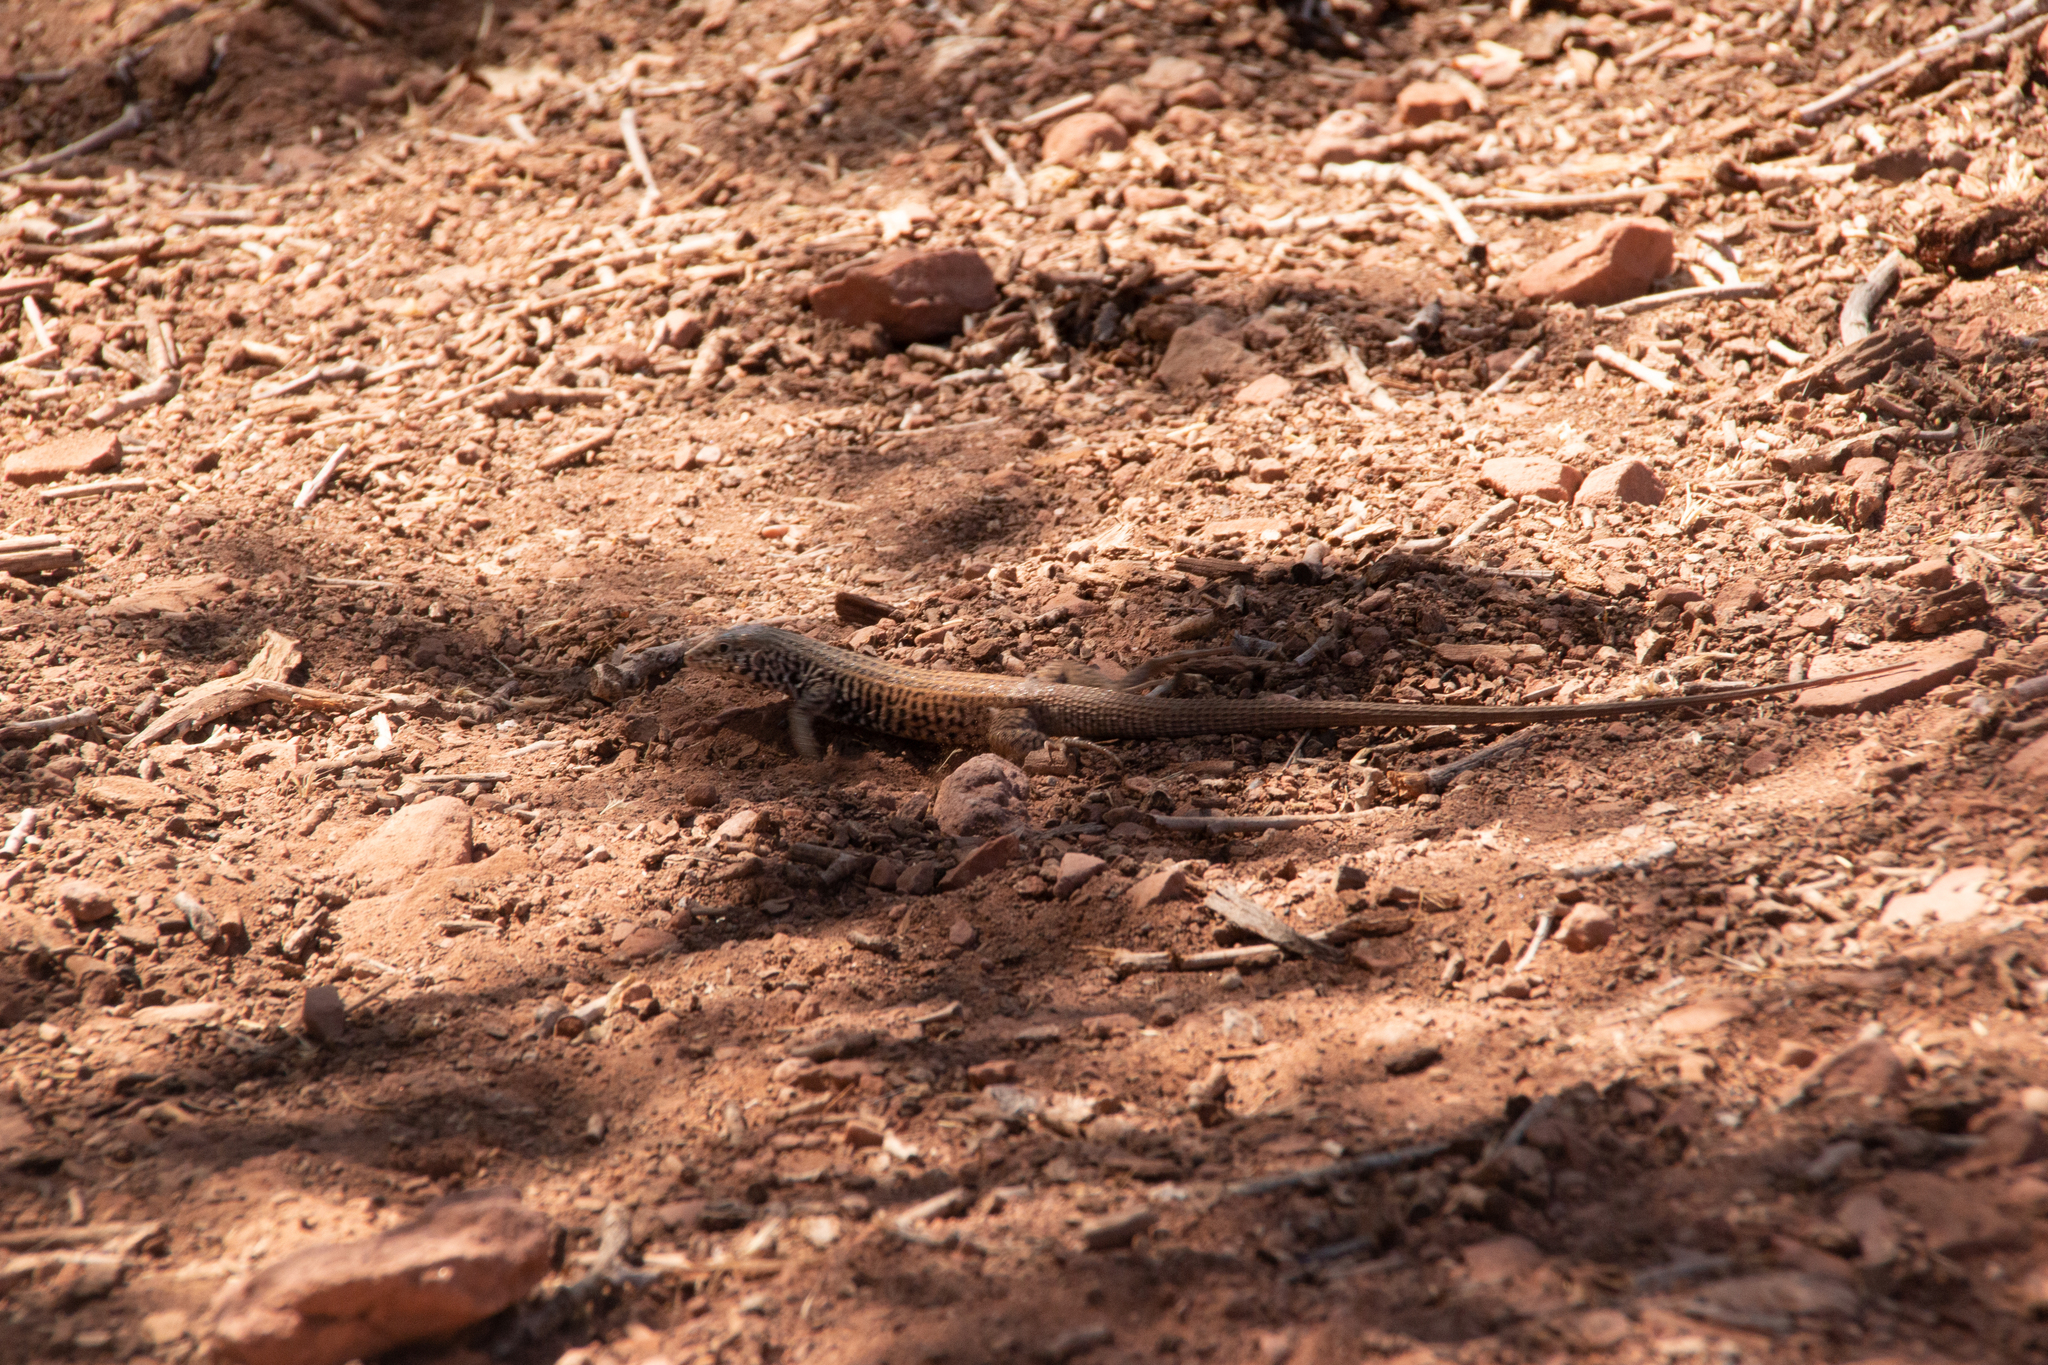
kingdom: Animalia
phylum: Chordata
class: Squamata
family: Teiidae
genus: Aspidoscelis
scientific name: Aspidoscelis tigris
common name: Tiger whiptail
